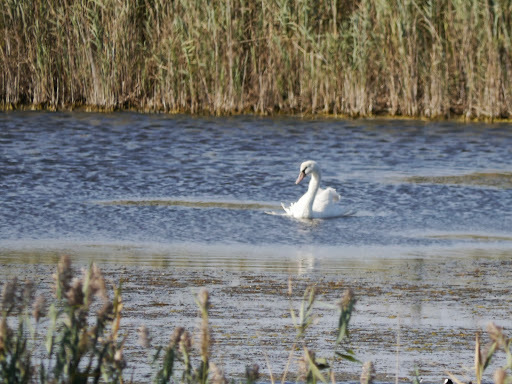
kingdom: Animalia
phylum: Chordata
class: Aves
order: Anseriformes
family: Anatidae
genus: Cygnus
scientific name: Cygnus olor
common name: Mute swan
